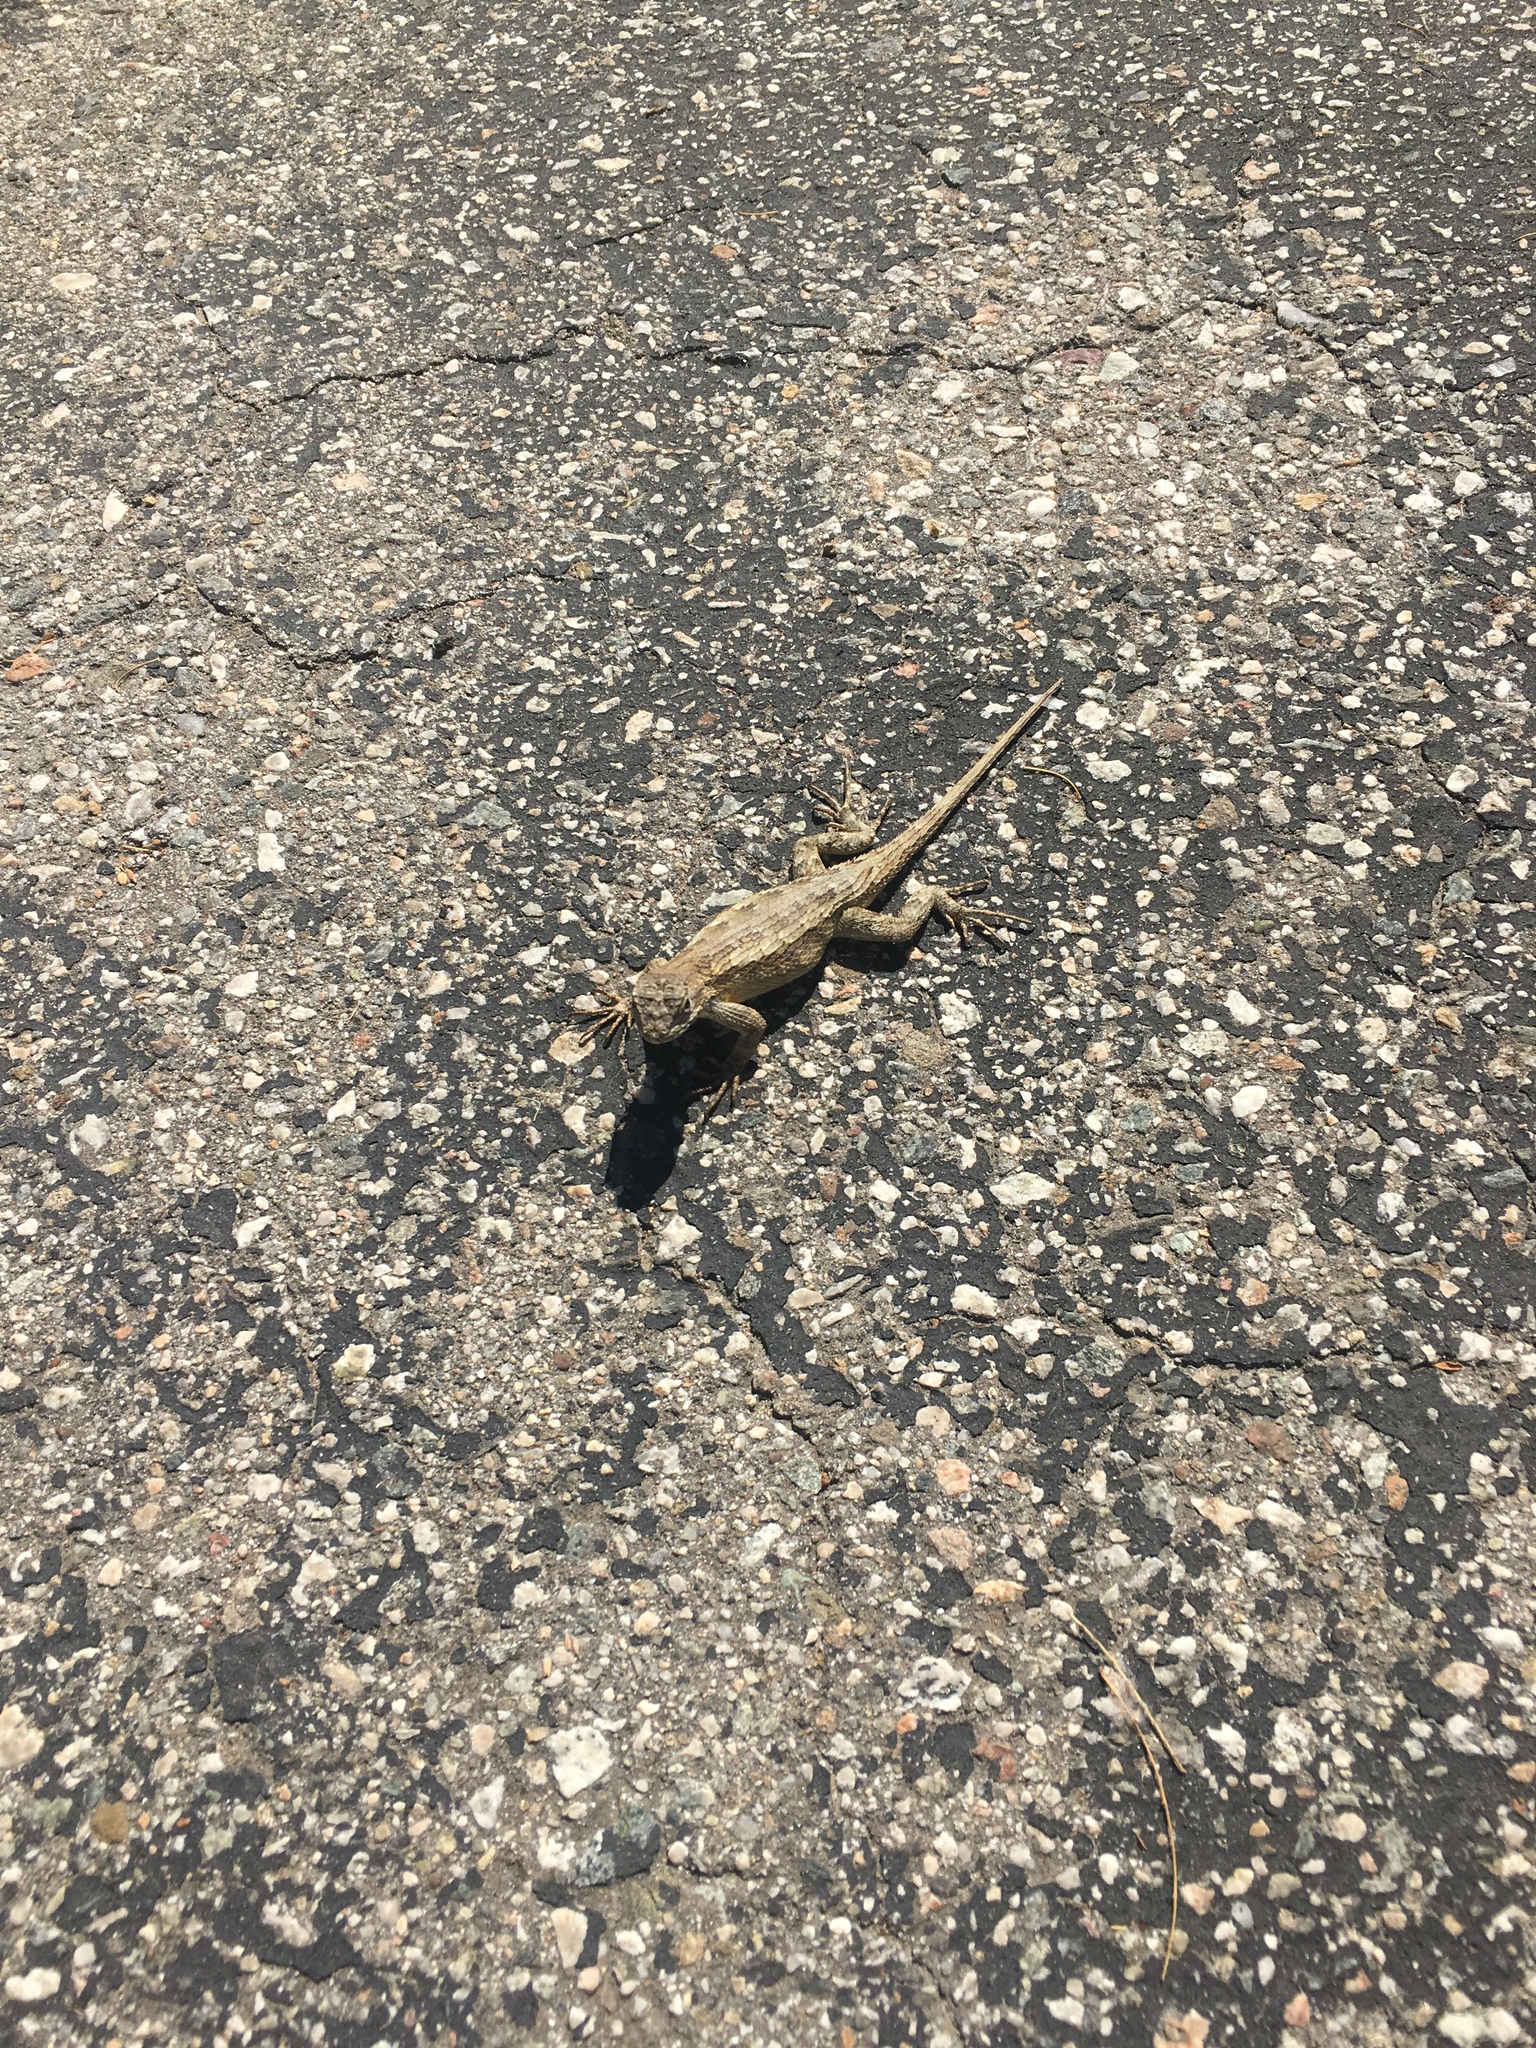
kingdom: Animalia
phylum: Chordata
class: Squamata
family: Phrynosomatidae
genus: Sceloporus
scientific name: Sceloporus occidentalis
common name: Western fence lizard
